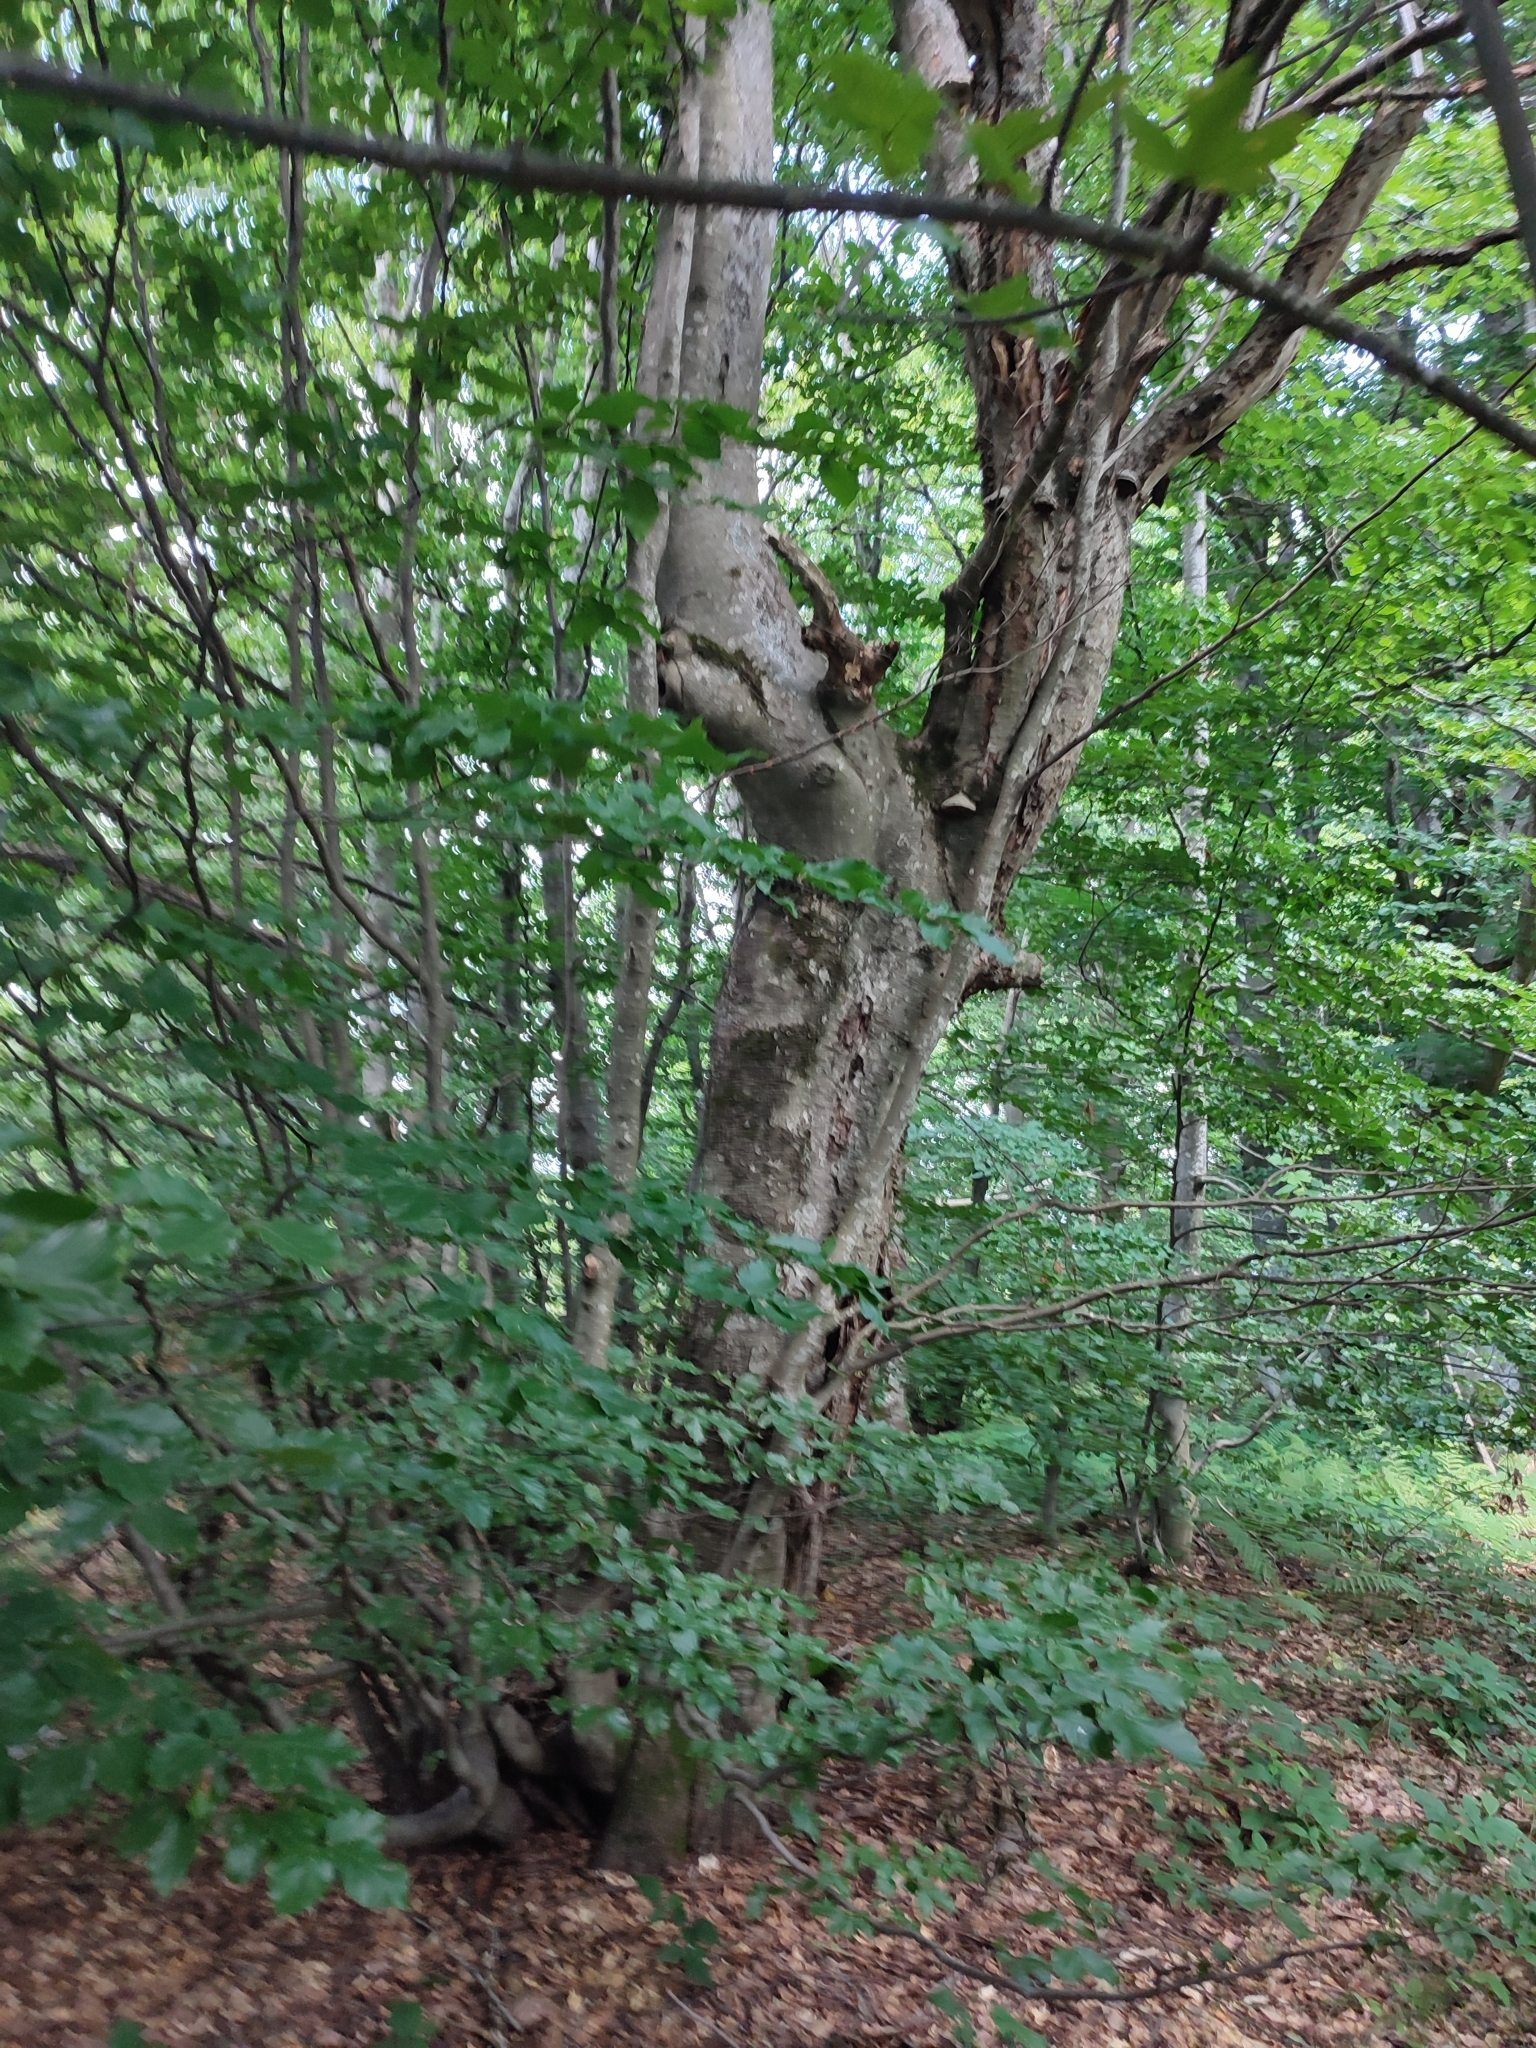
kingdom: Plantae
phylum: Tracheophyta
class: Magnoliopsida
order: Fagales
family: Fagaceae
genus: Fagus
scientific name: Fagus sylvatica
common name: Beech
